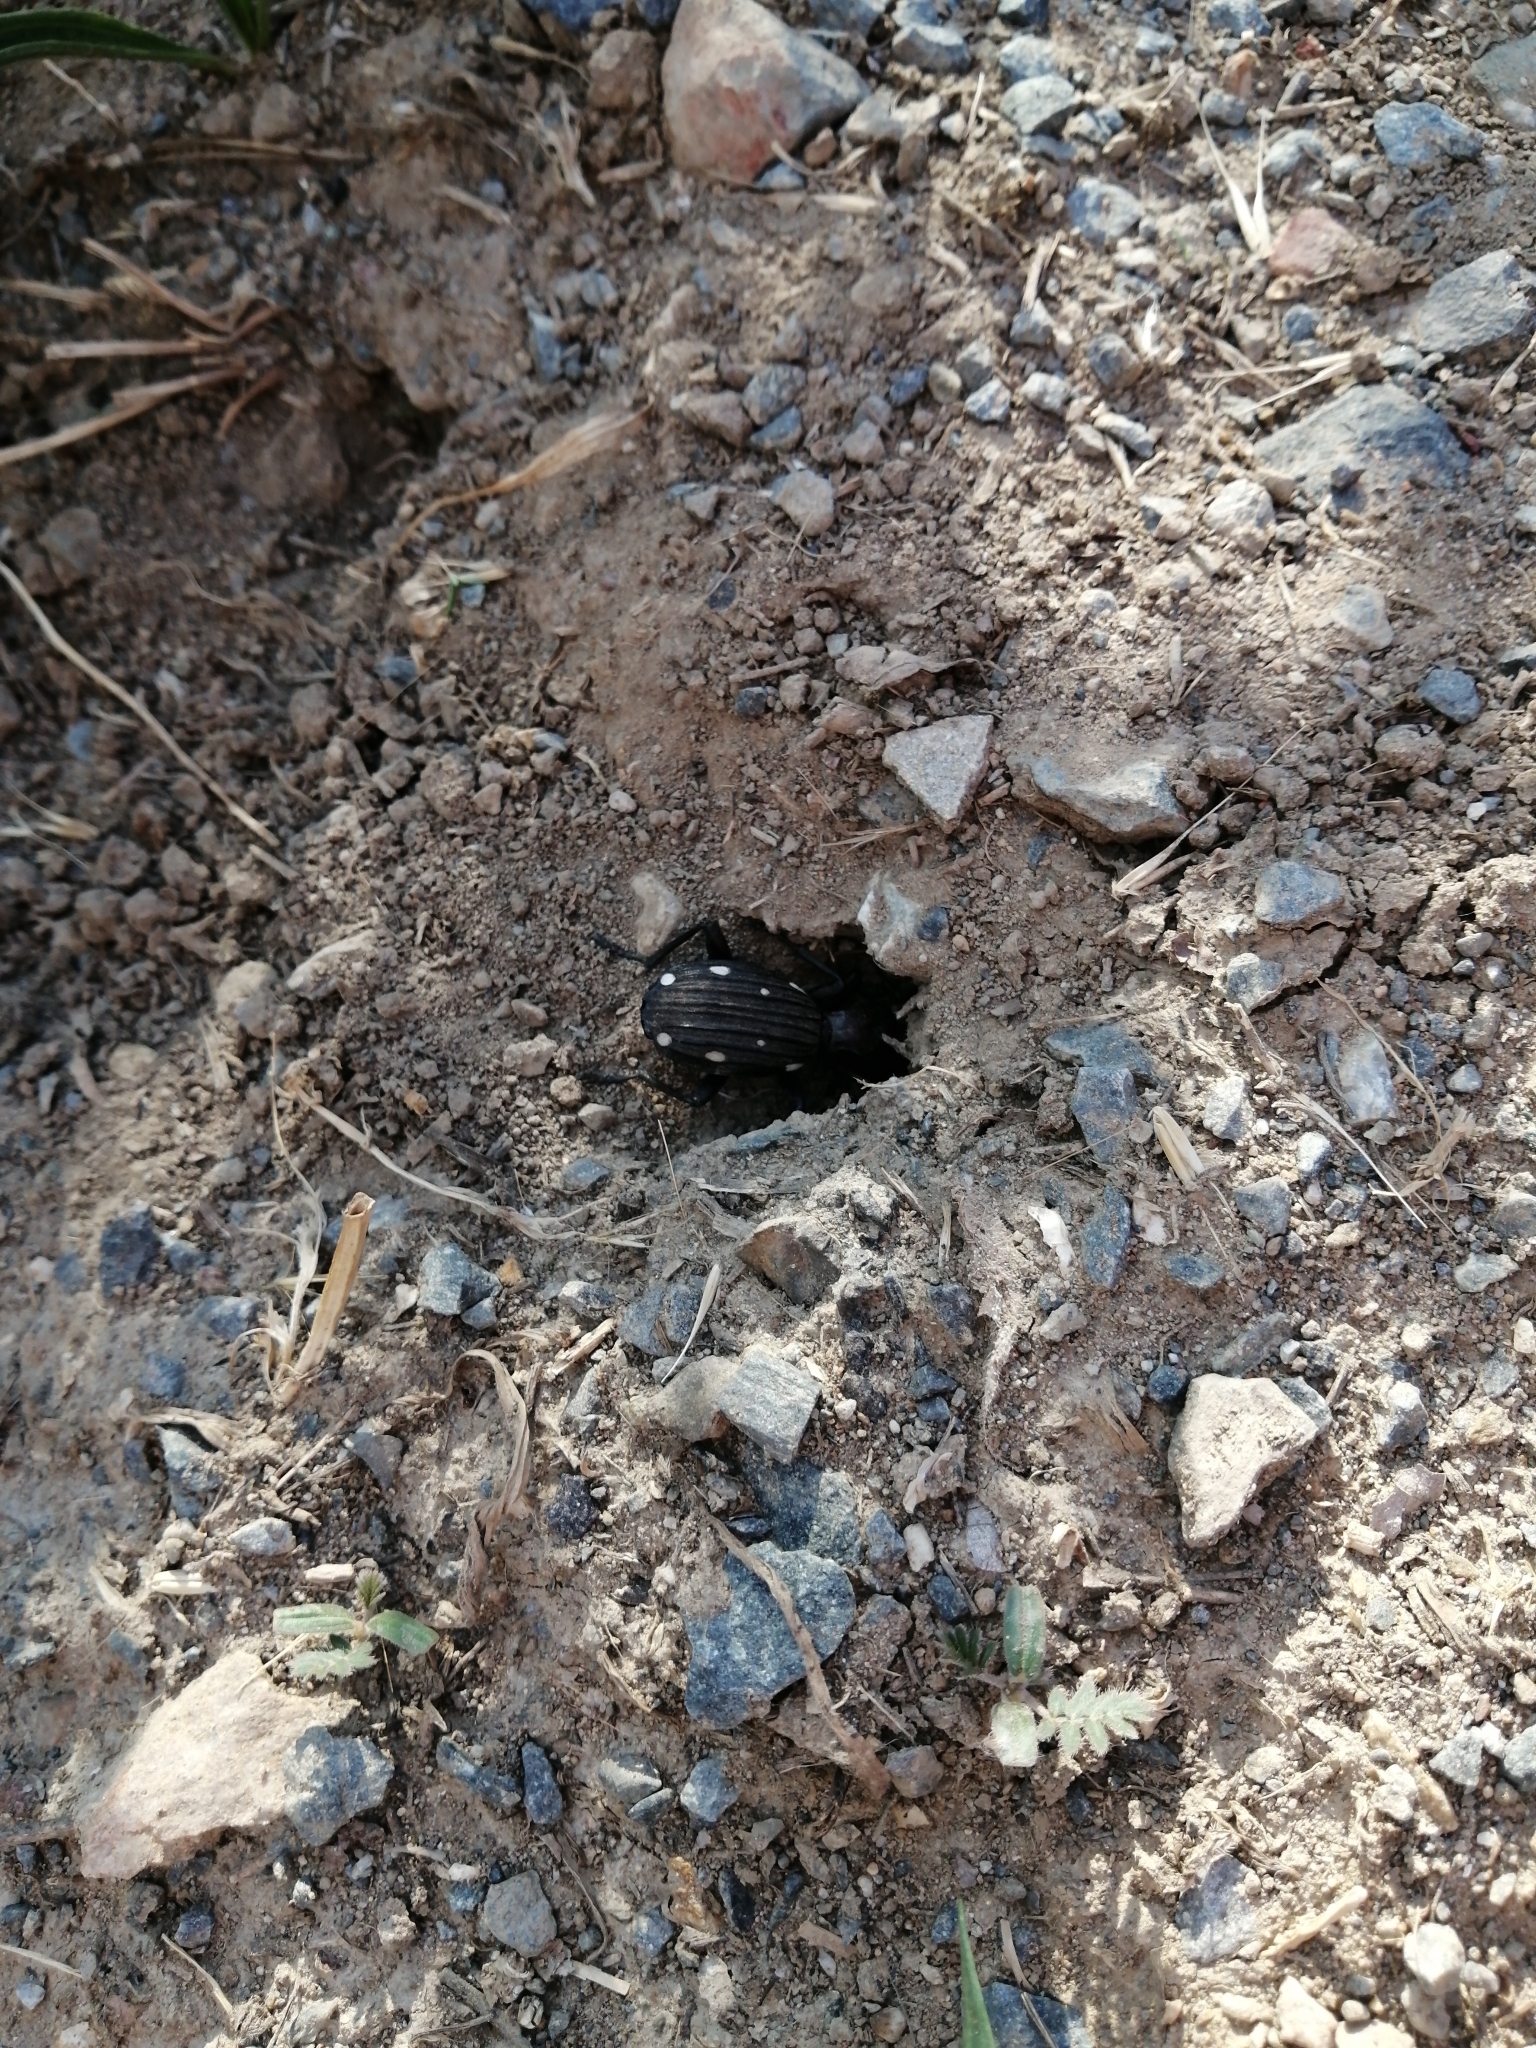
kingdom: Animalia
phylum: Arthropoda
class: Insecta
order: Coleoptera
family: Carabidae
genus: Anthia
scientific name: Anthia decemguttata
